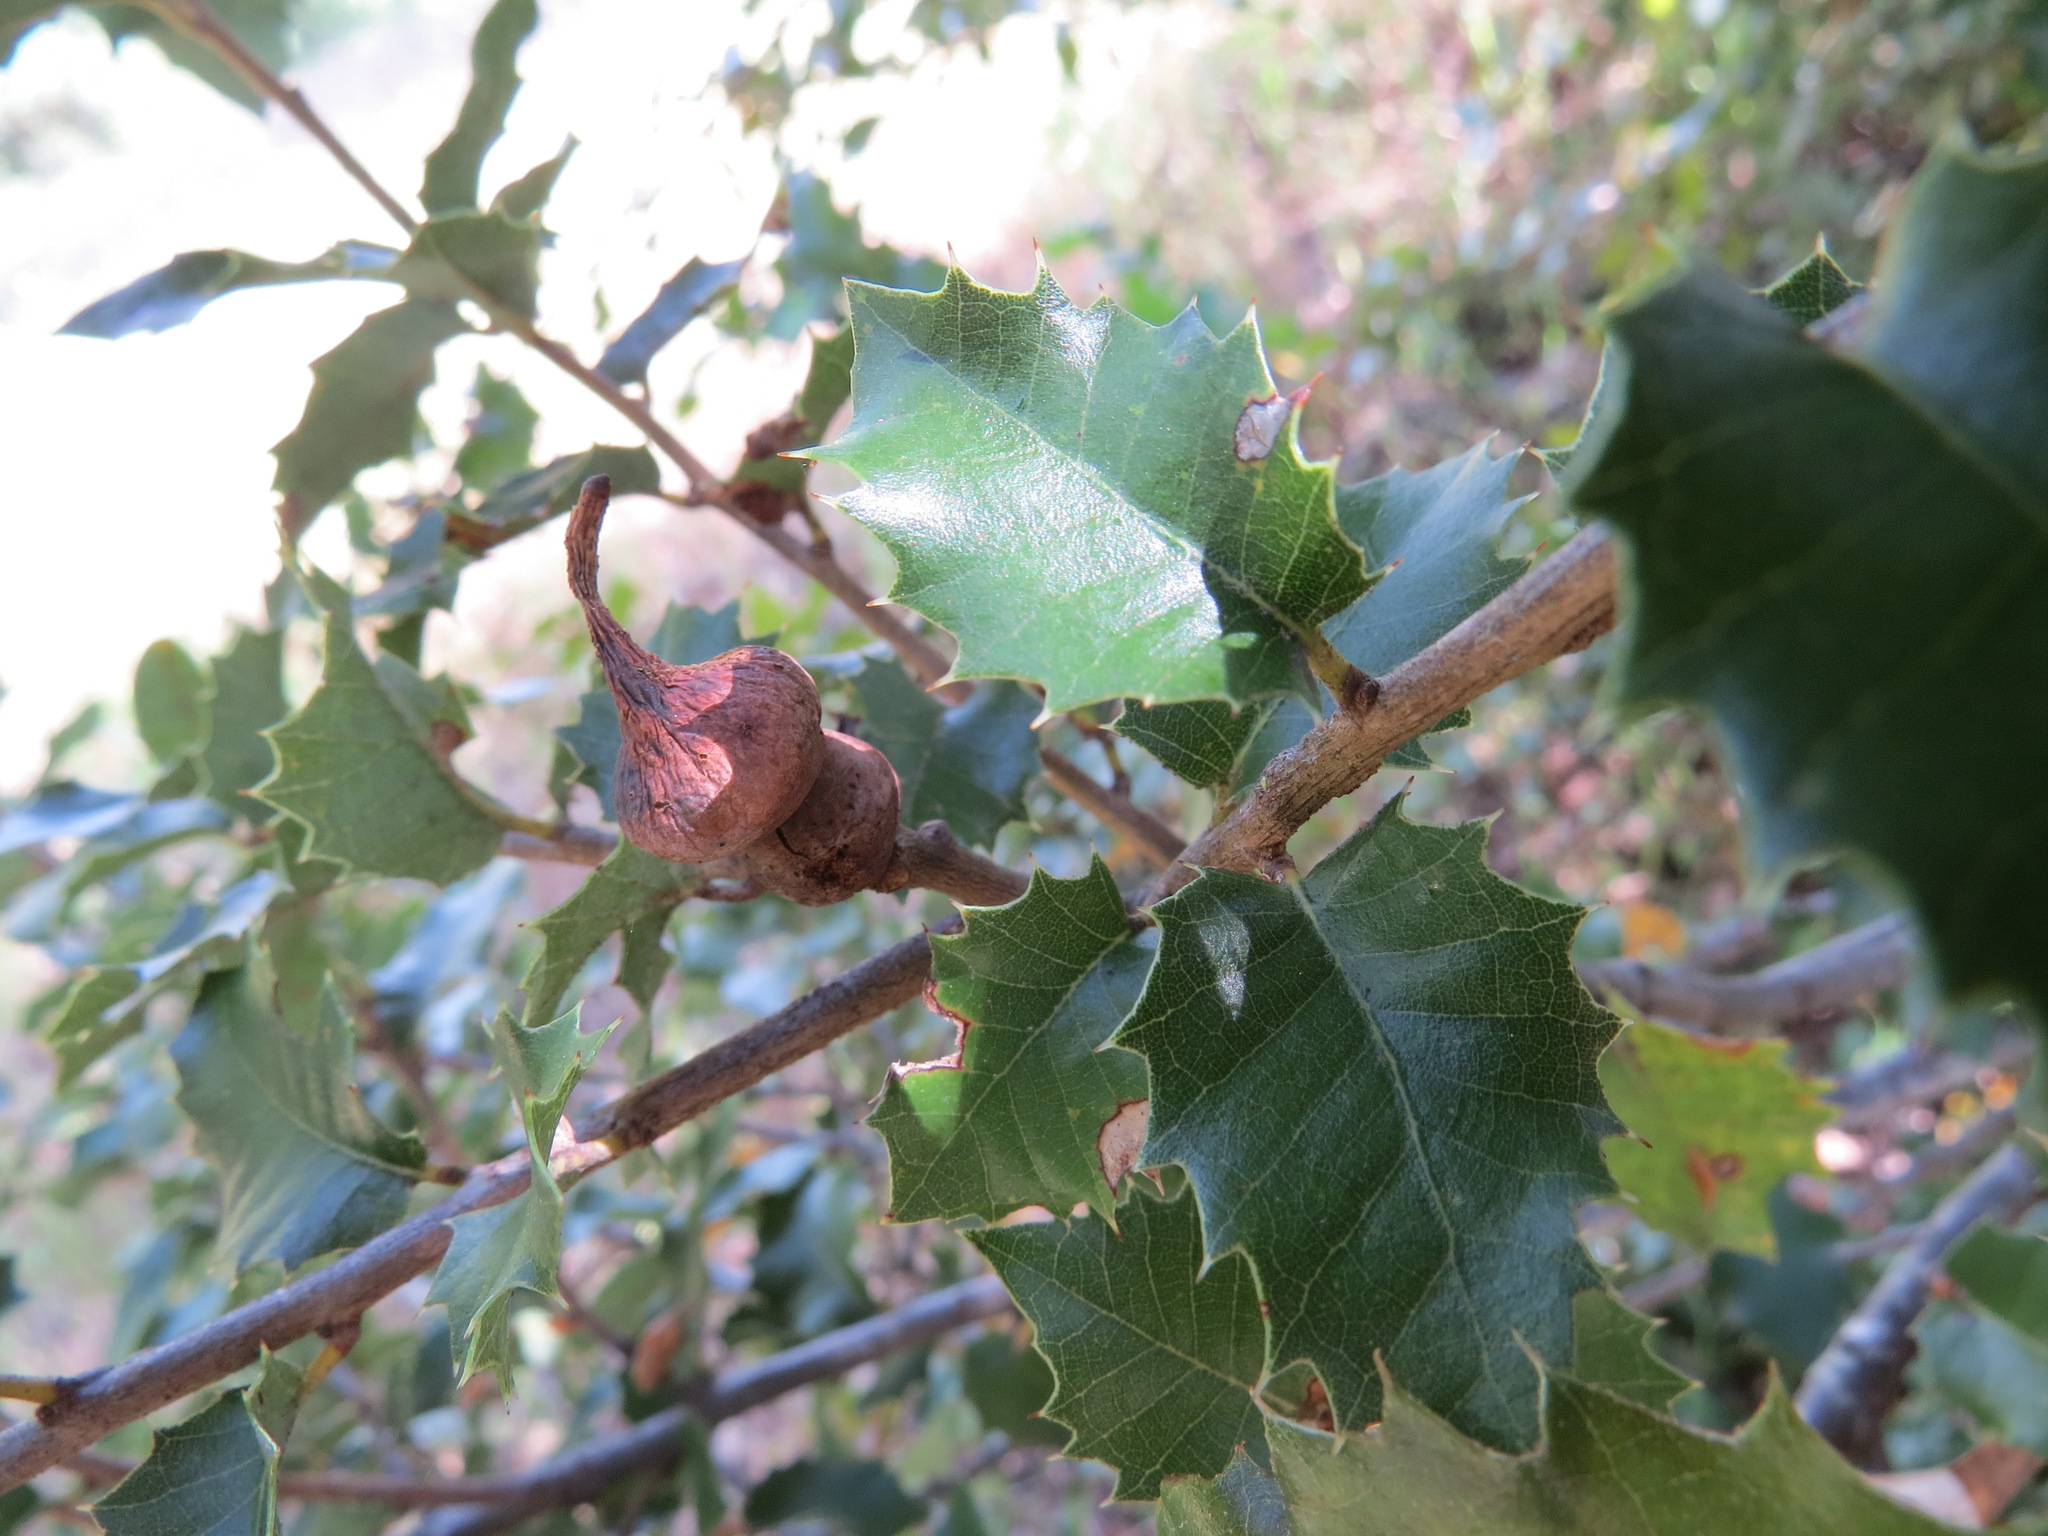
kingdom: Animalia
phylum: Arthropoda
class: Insecta
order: Hymenoptera
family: Cynipidae
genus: Heteroecus
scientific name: Heteroecus
